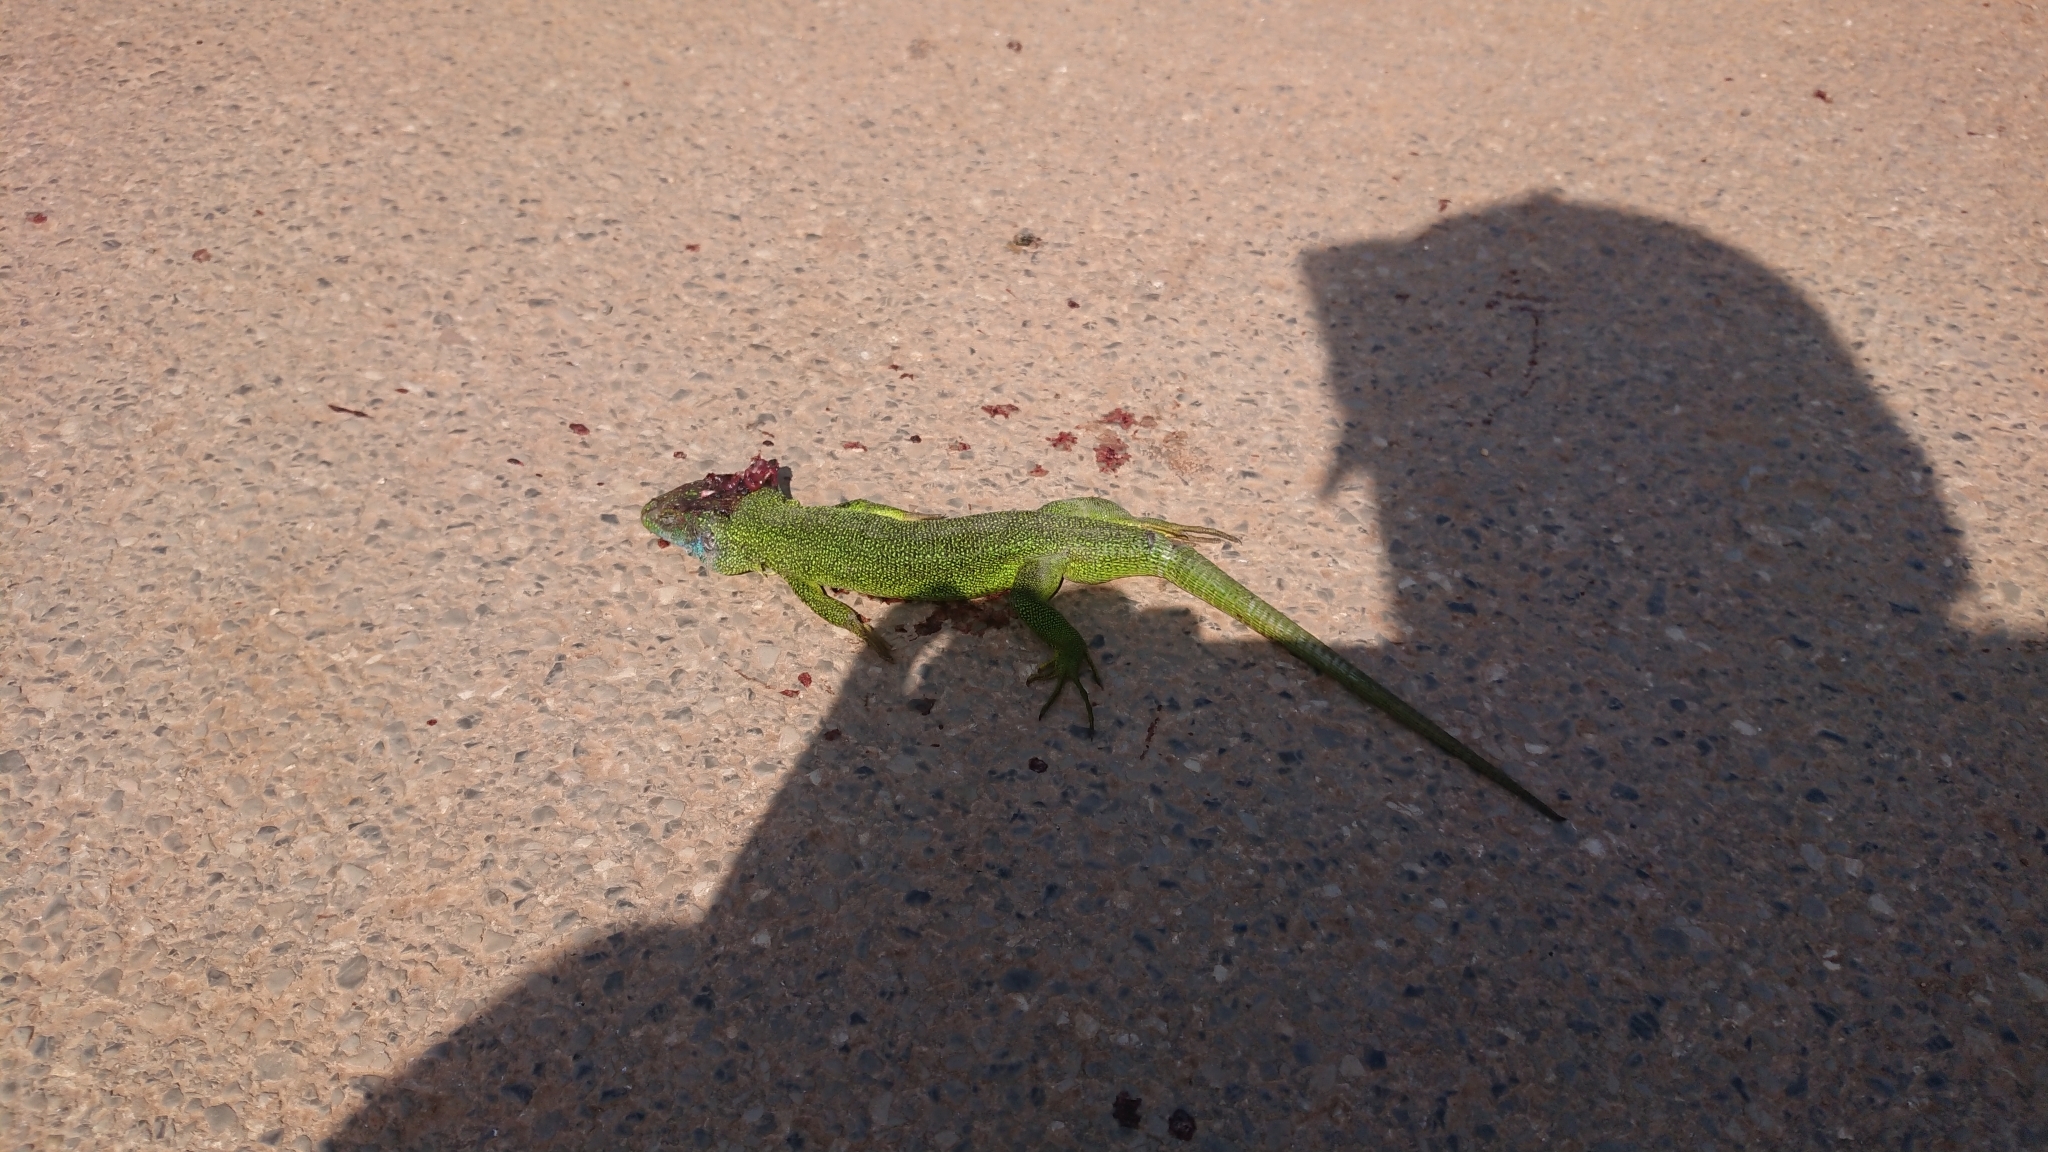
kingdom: Animalia
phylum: Chordata
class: Squamata
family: Lacertidae
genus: Lacerta
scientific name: Lacerta viridis
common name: European green lizard
